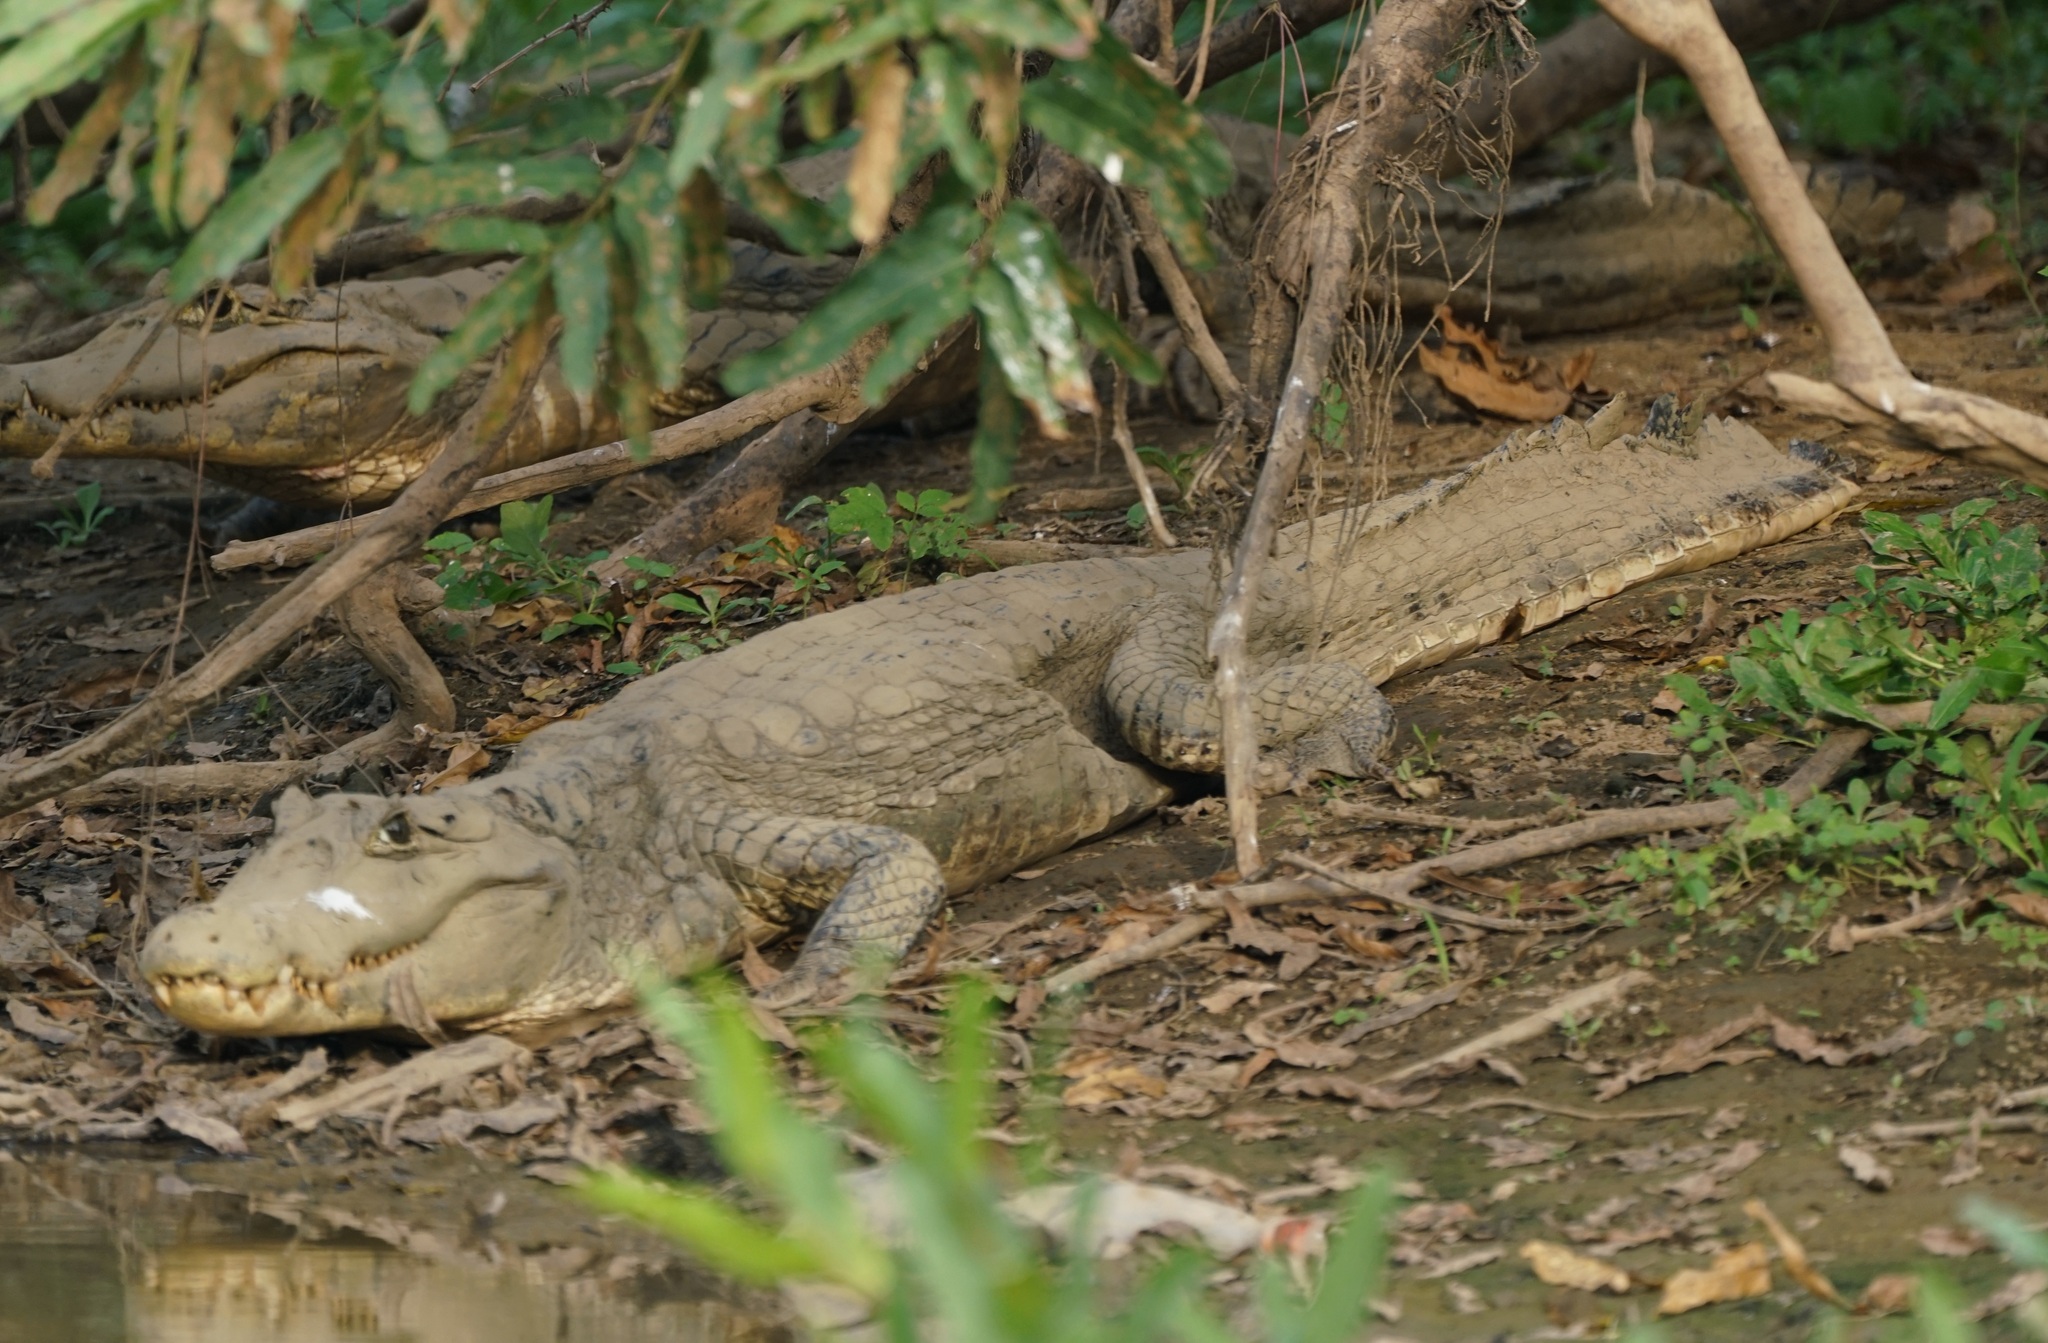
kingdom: Animalia
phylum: Chordata
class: Crocodylia
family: Alligatoridae
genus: Caiman
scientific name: Caiman yacare
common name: Yacare caiman
